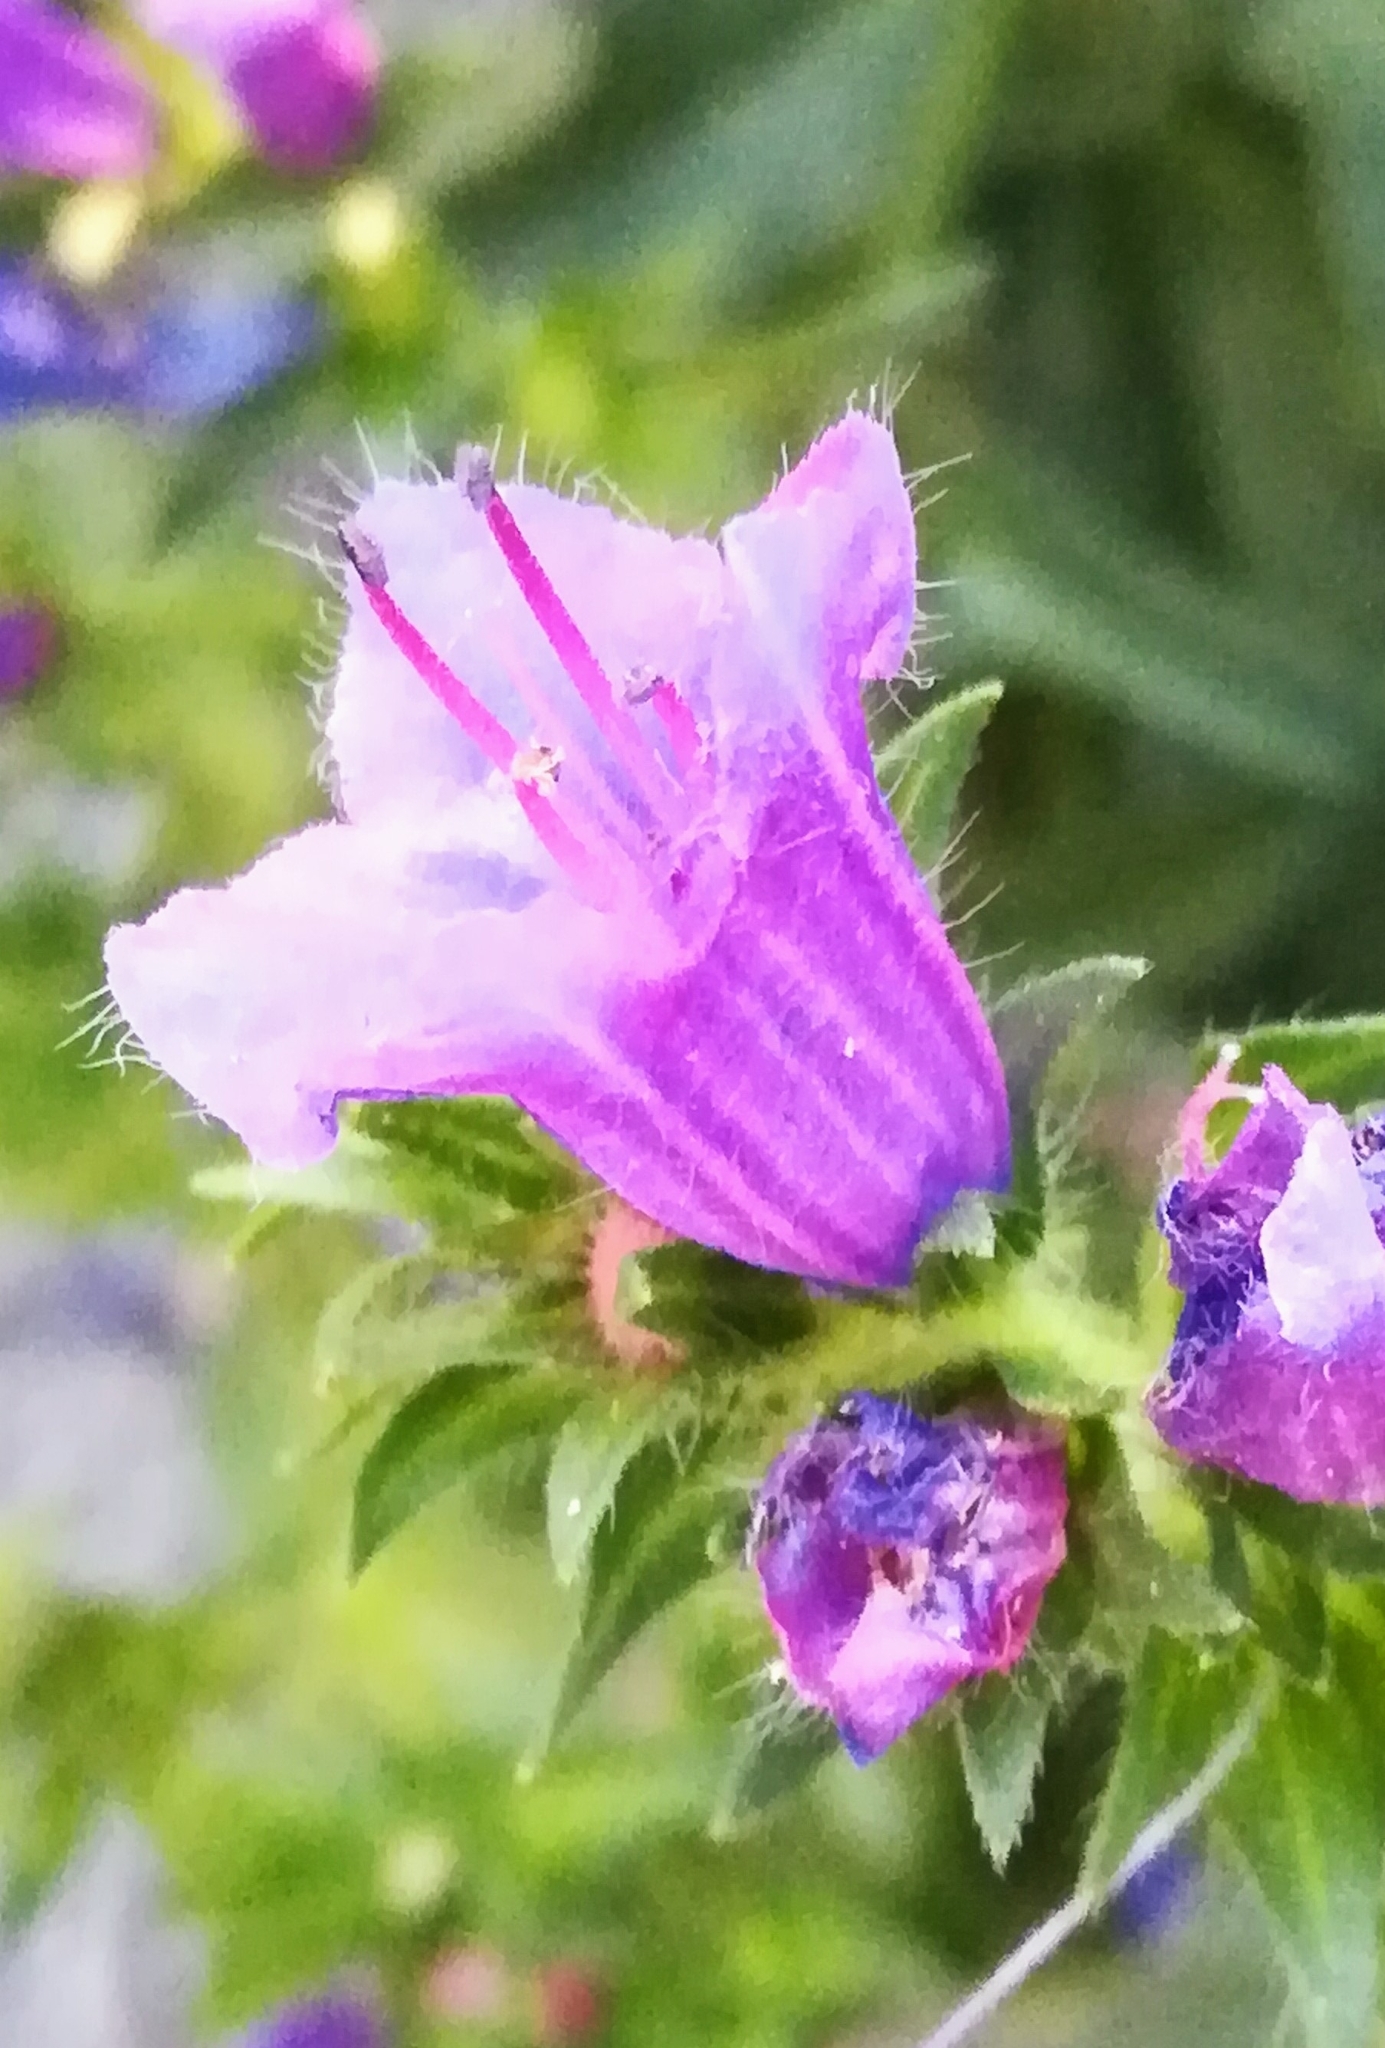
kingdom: Plantae
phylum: Tracheophyta
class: Magnoliopsida
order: Boraginales
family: Boraginaceae
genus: Echium
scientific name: Echium plantagineum
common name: Purple viper's-bugloss
